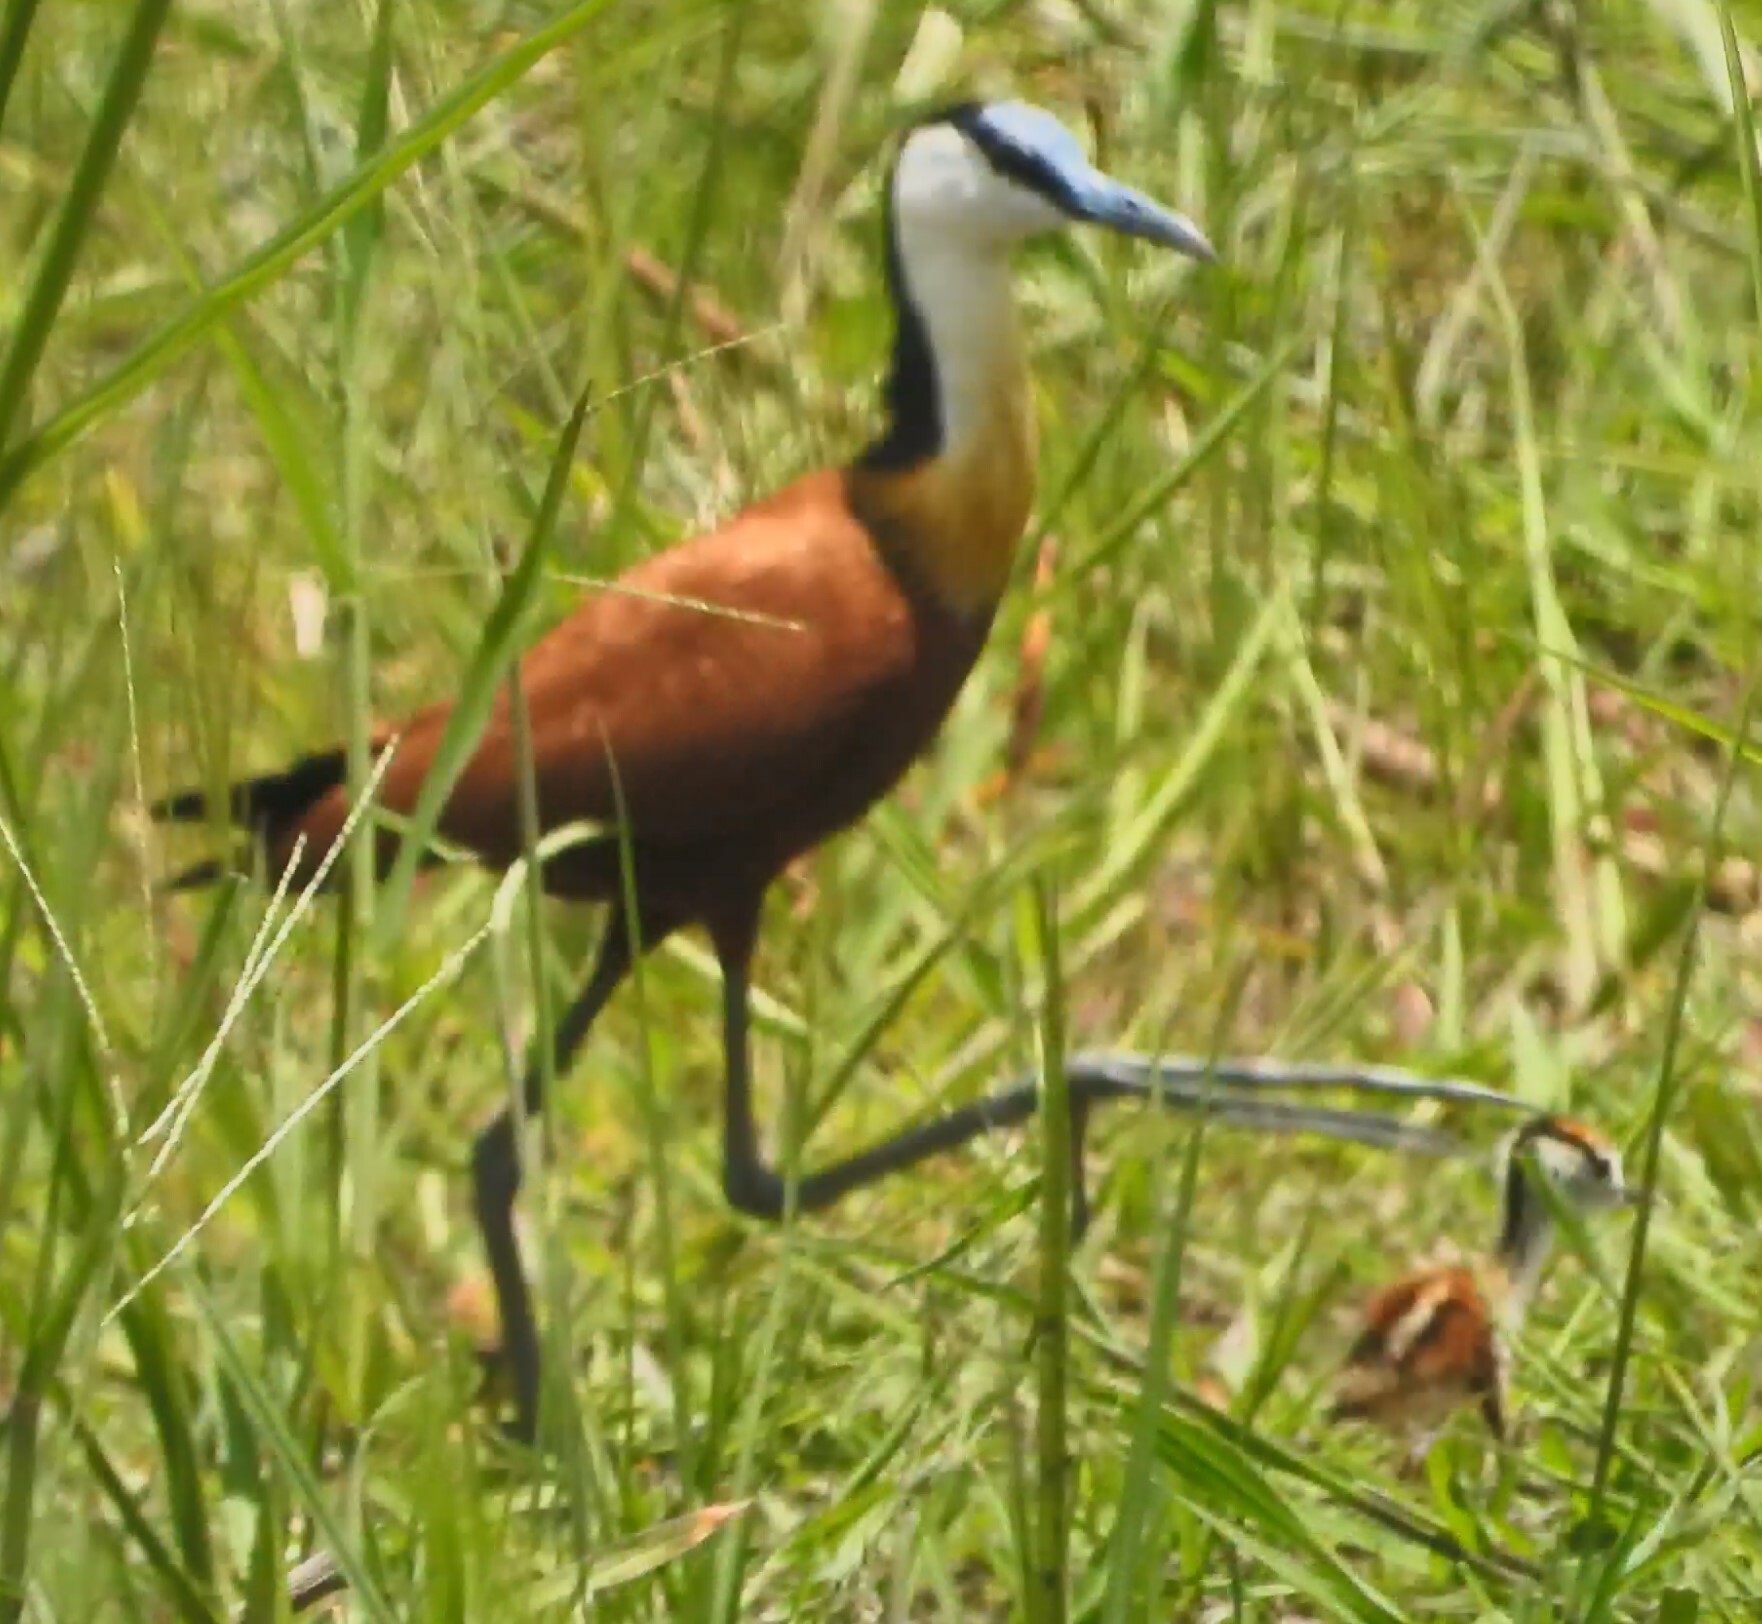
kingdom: Animalia
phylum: Chordata
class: Aves
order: Charadriiformes
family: Jacanidae
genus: Actophilornis
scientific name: Actophilornis africanus
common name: African jacana
